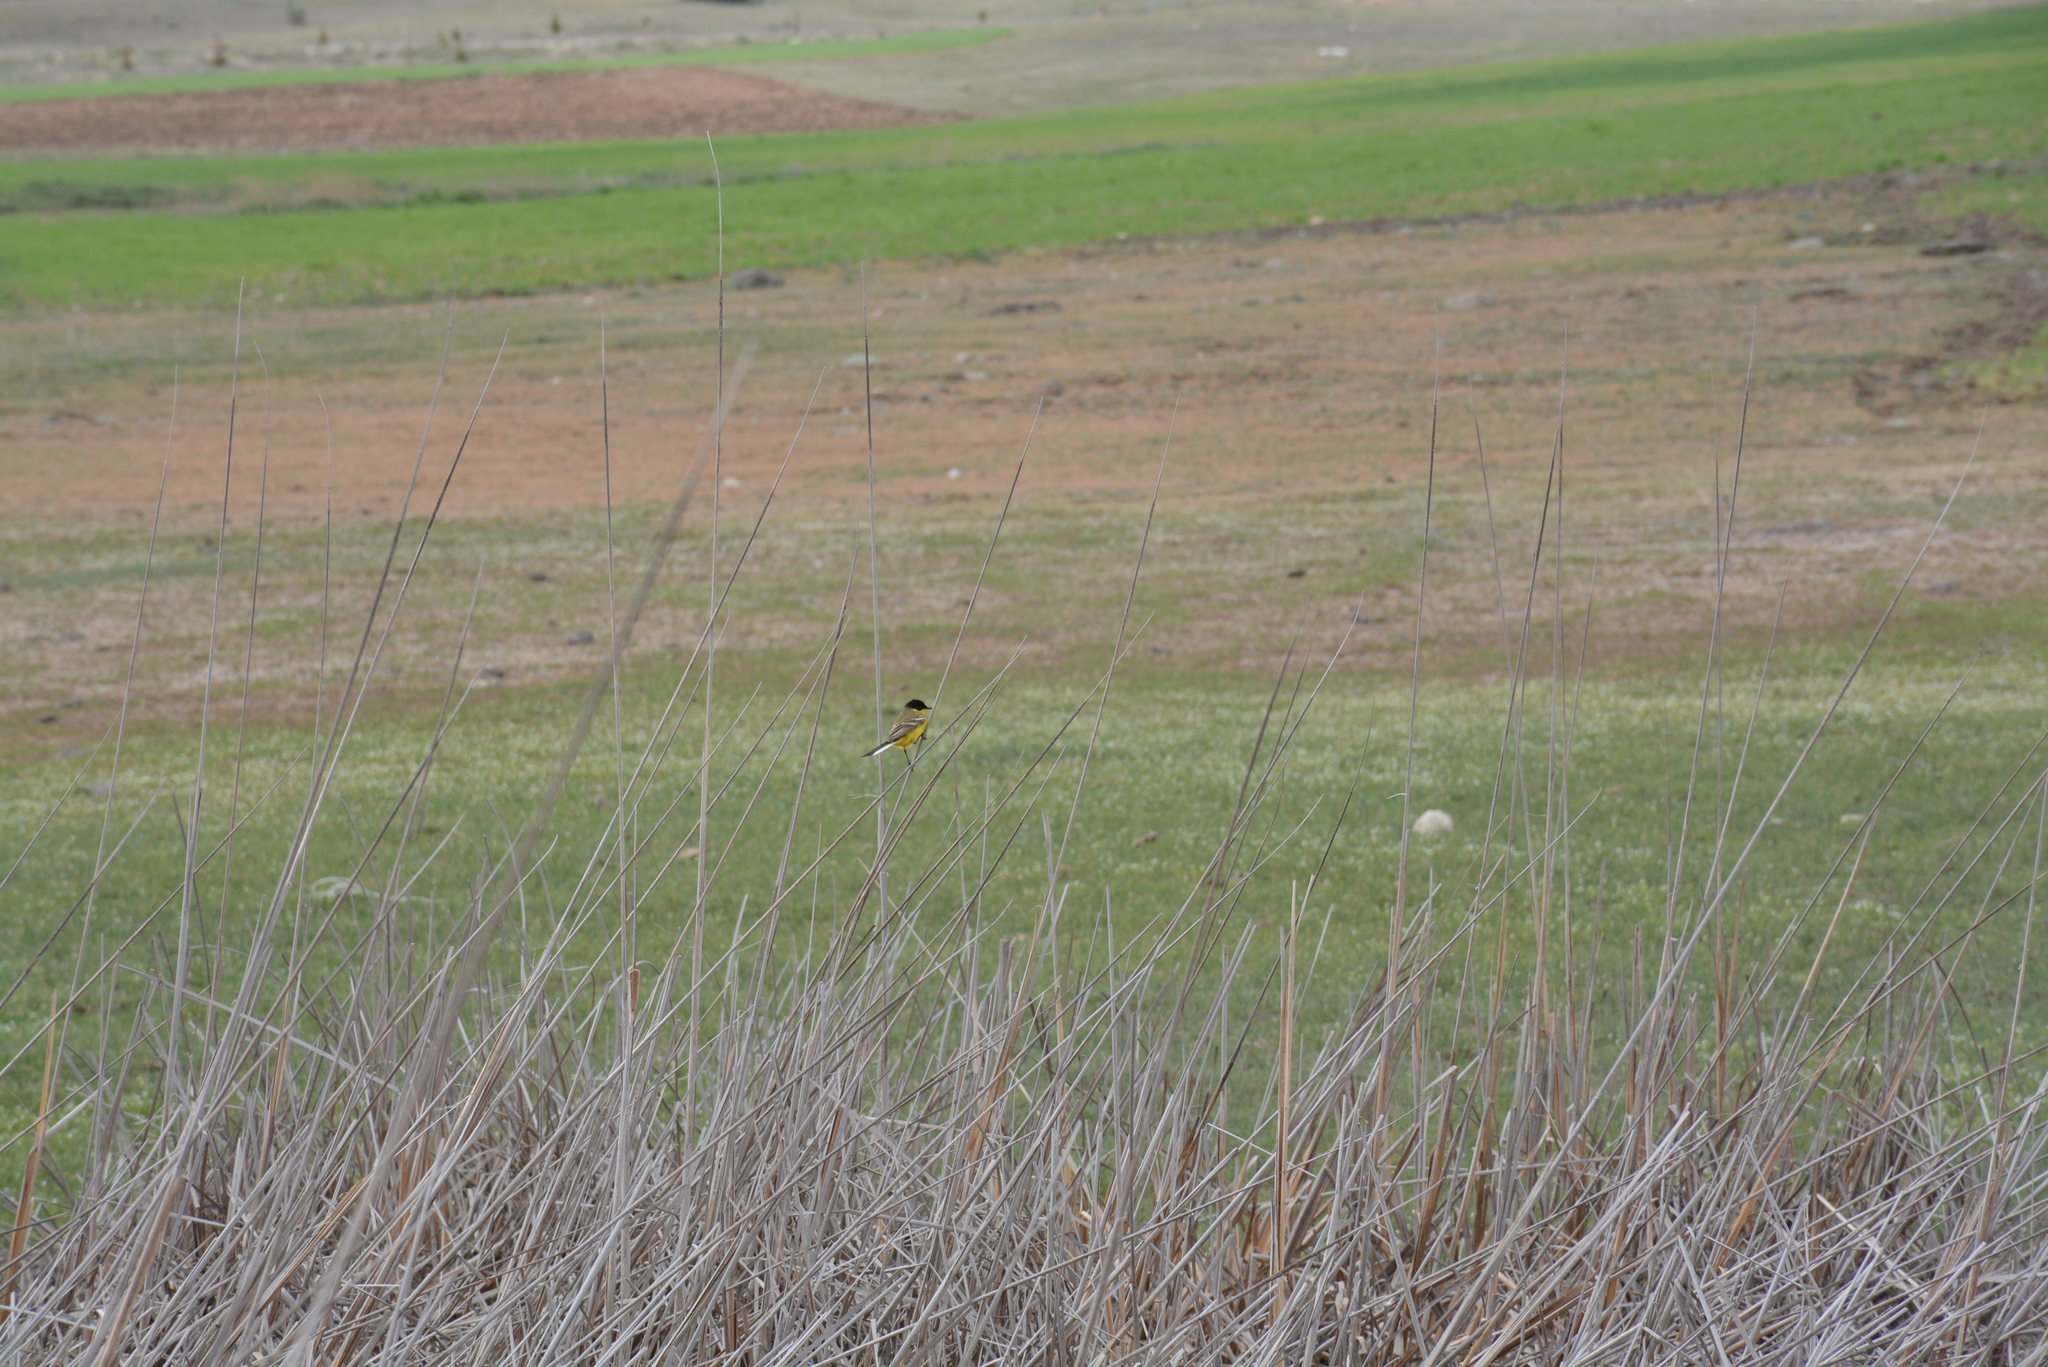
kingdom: Animalia
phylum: Chordata
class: Aves
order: Passeriformes
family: Motacillidae
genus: Motacilla
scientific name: Motacilla flava
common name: Western yellow wagtail
